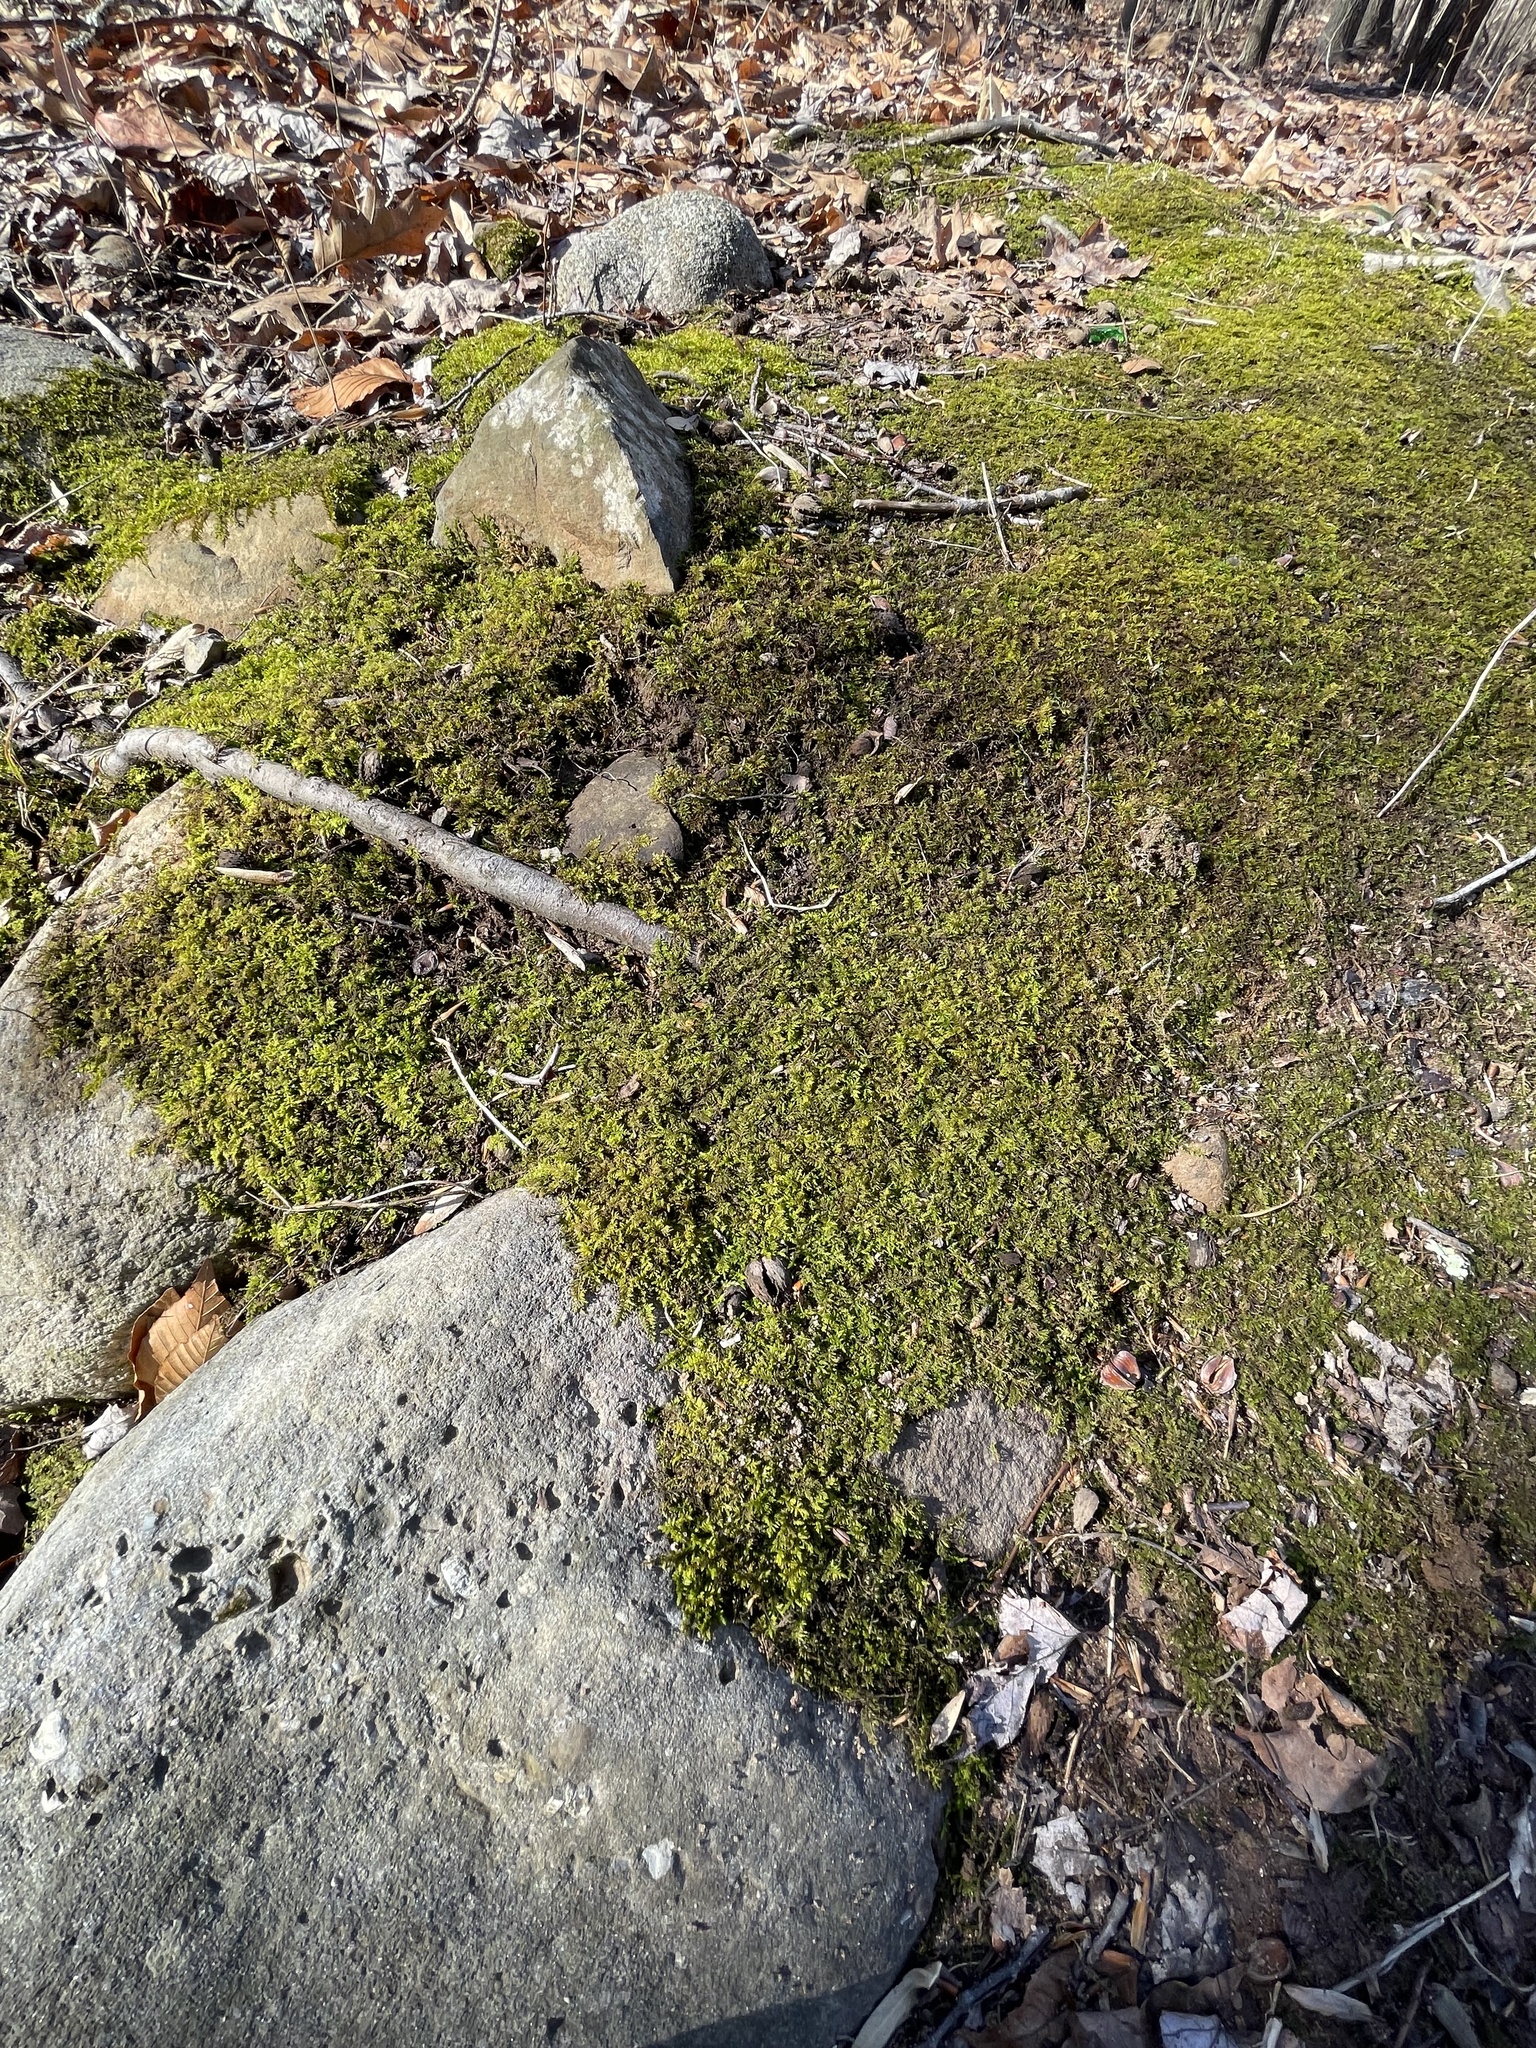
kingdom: Plantae
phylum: Bryophyta
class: Bryopsida
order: Hypnales
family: Thuidiaceae
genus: Thuidium
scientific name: Thuidium delicatulum
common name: Delicate fern moss
